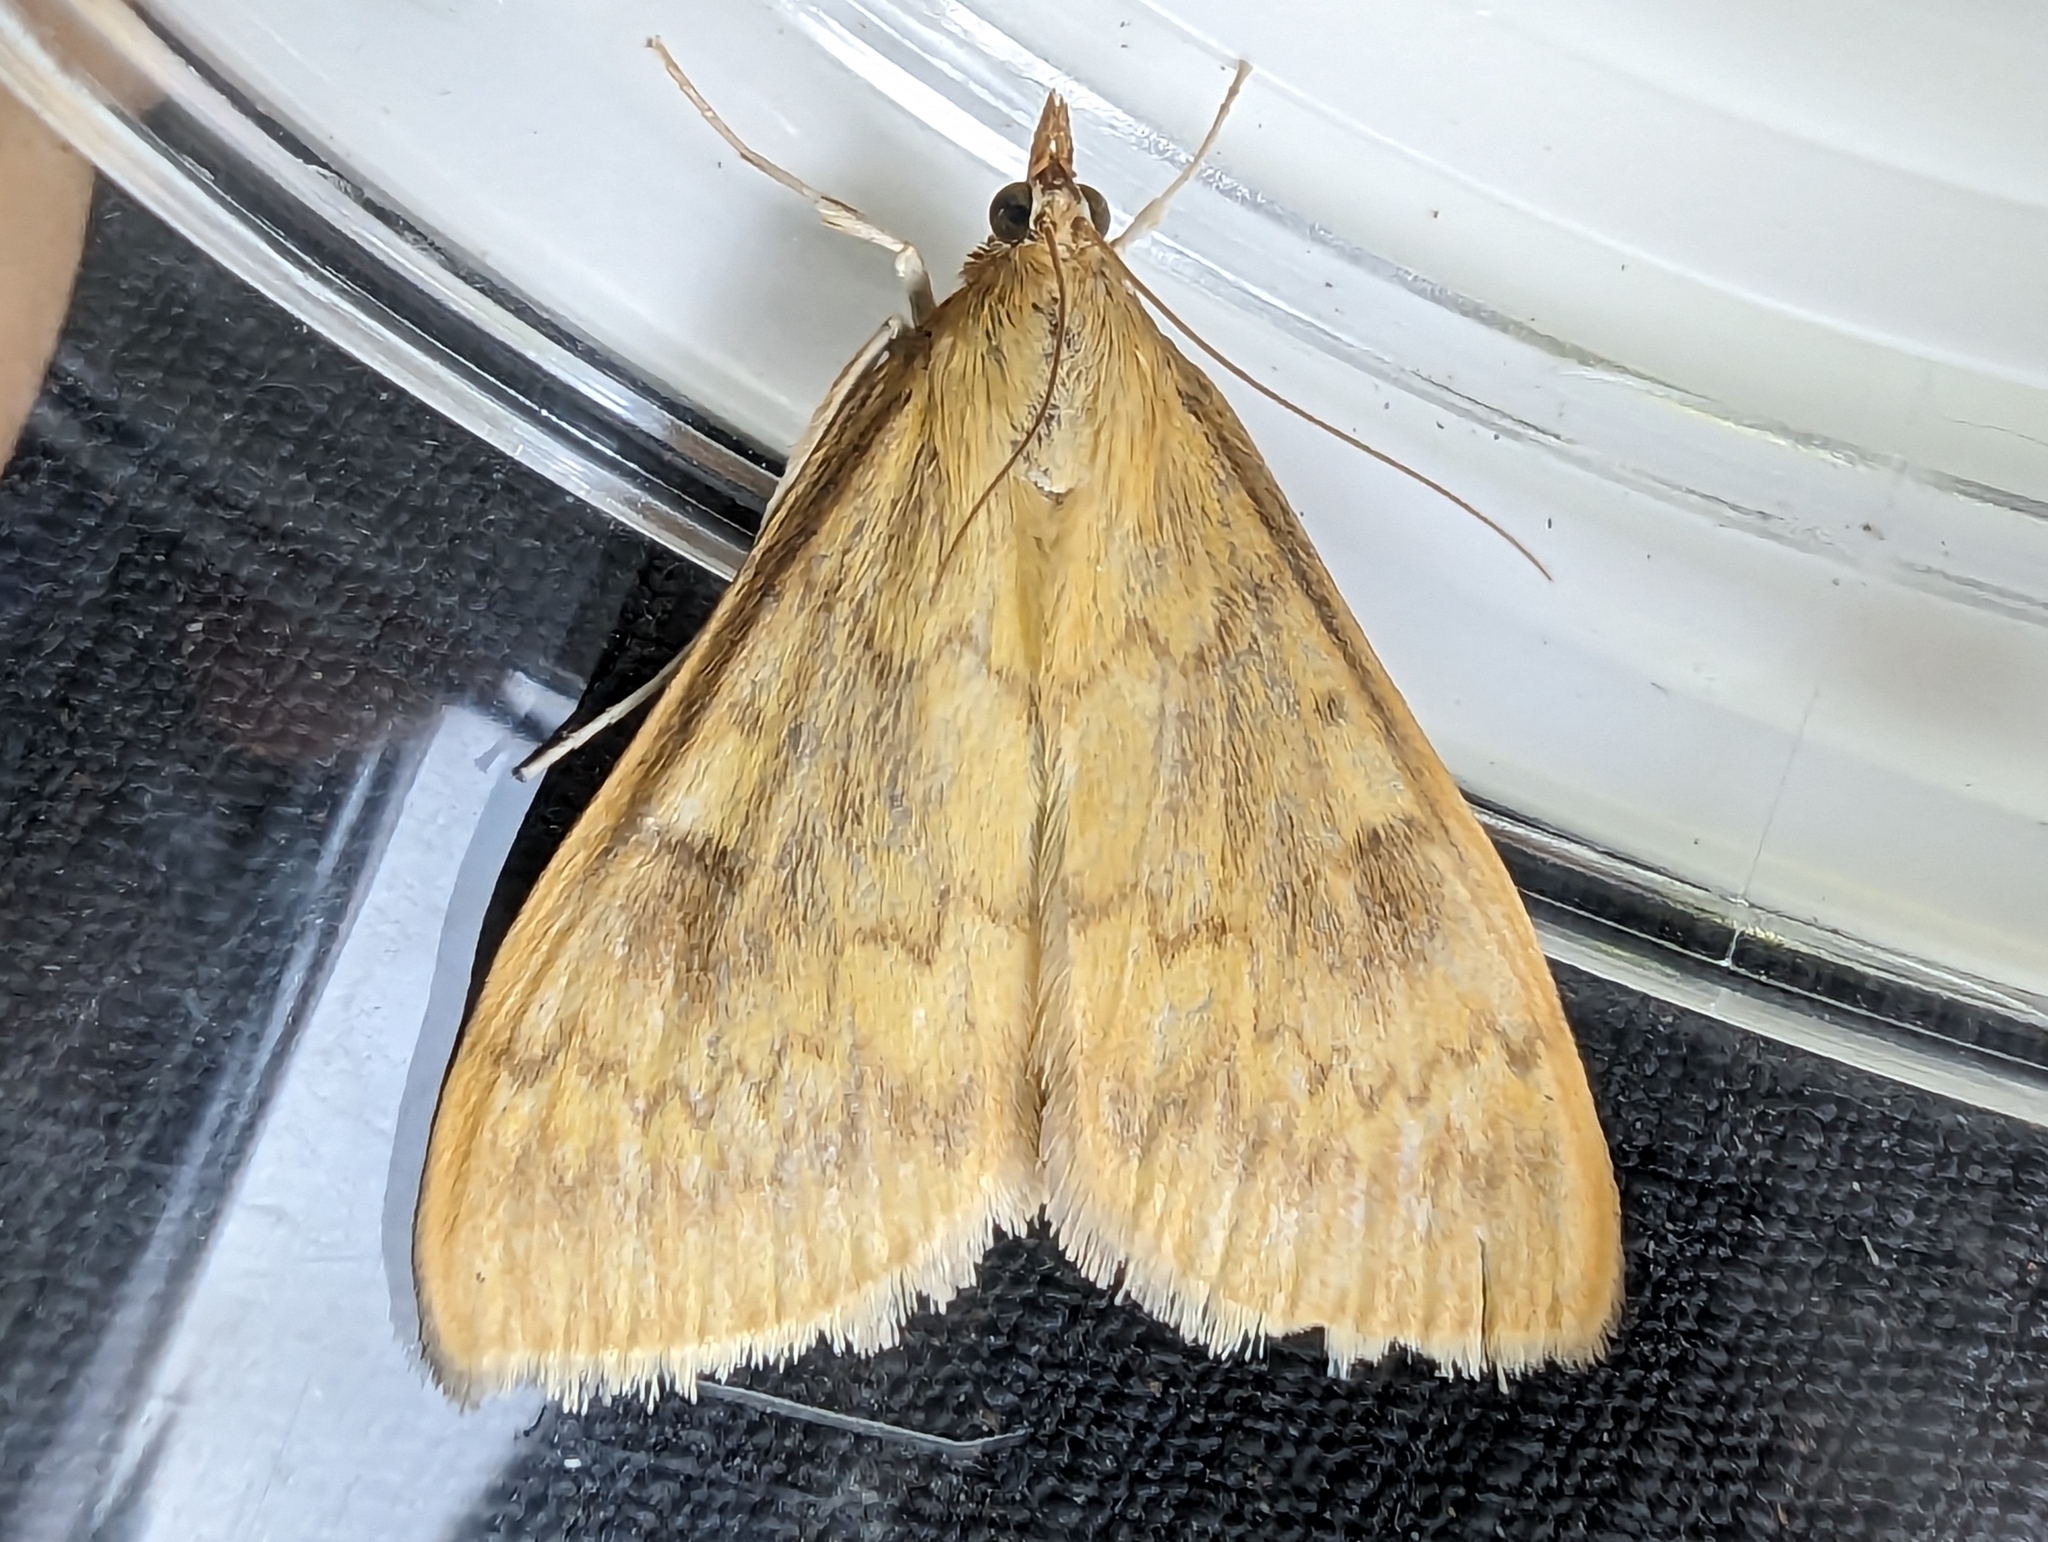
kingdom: Animalia
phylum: Arthropoda
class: Insecta
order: Lepidoptera
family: Crambidae
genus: Ostrinia
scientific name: Ostrinia nubilalis
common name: European corn borer
